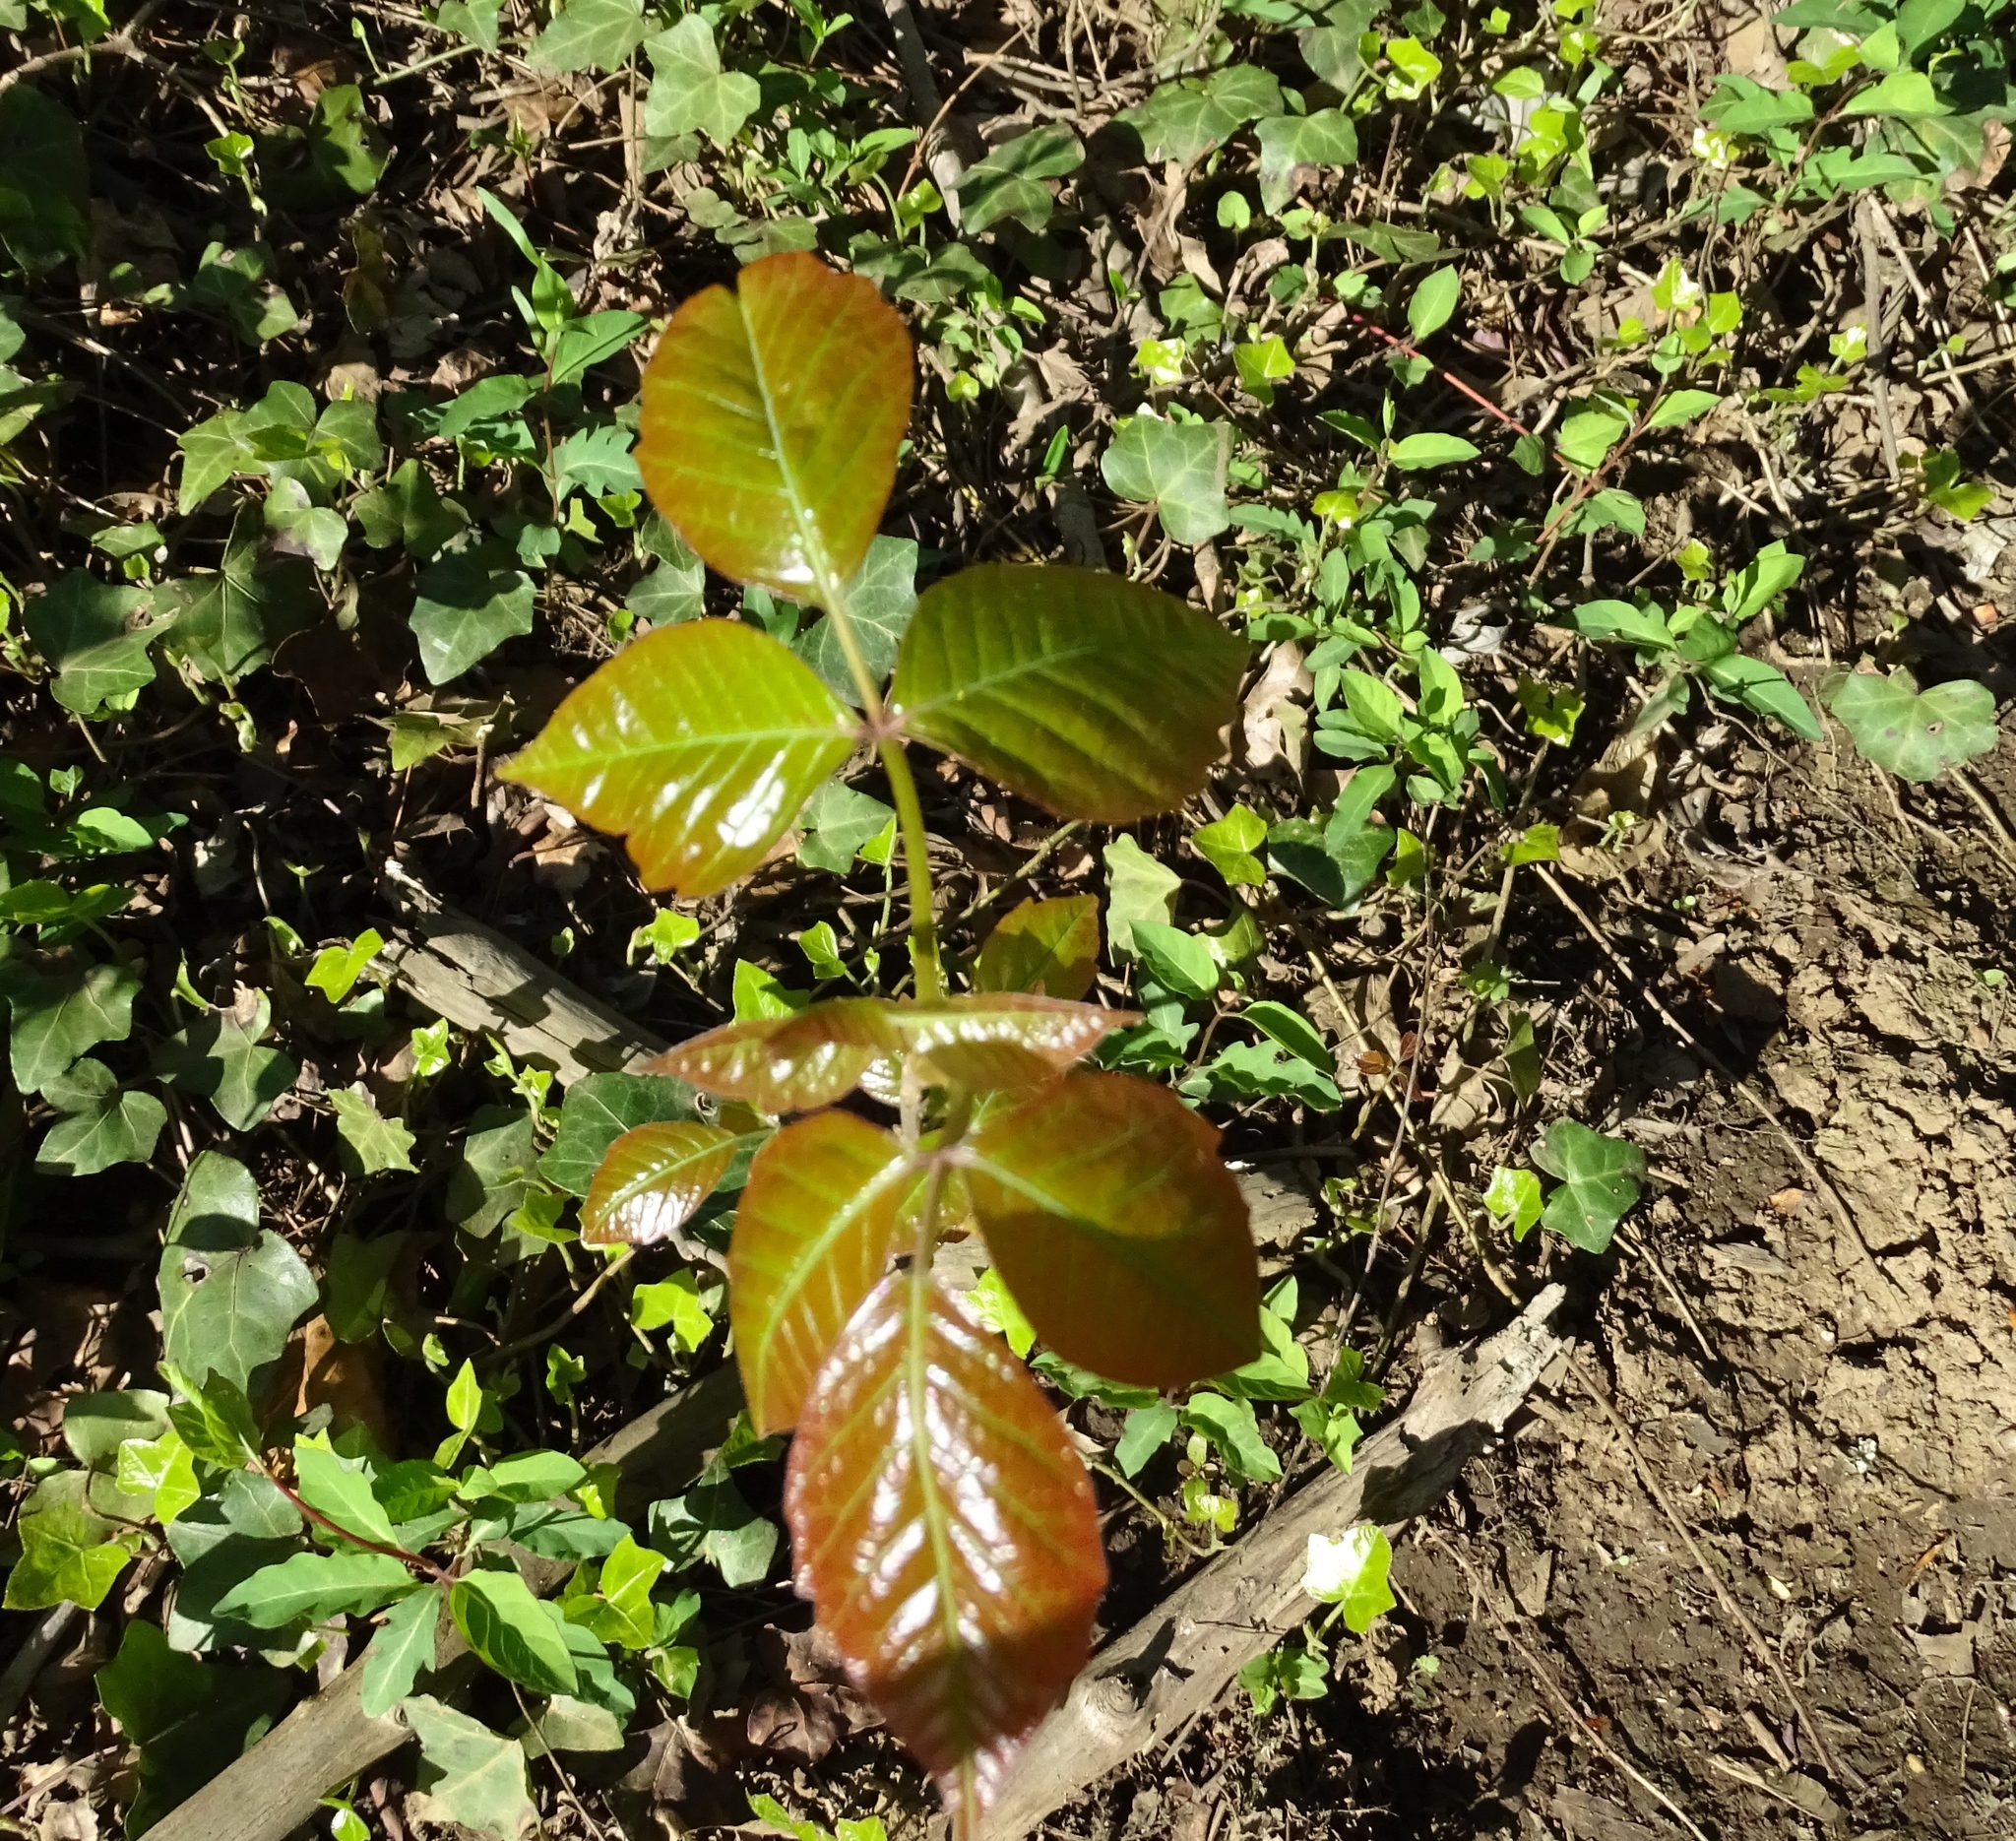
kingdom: Plantae
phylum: Tracheophyta
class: Magnoliopsida
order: Sapindales
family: Anacardiaceae
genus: Toxicodendron
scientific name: Toxicodendron radicans
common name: Poison ivy
